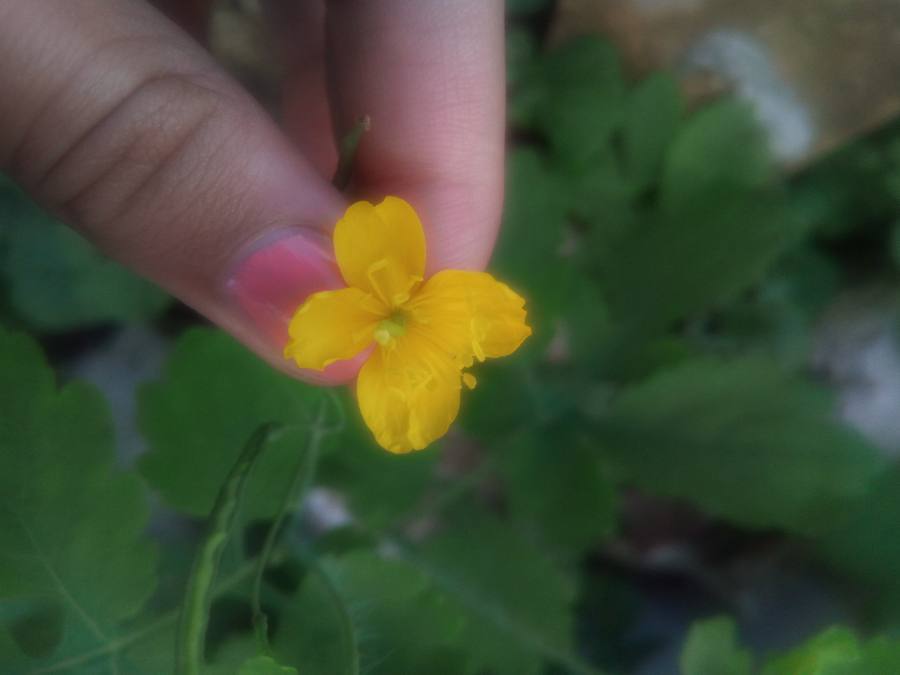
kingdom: Plantae
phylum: Tracheophyta
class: Magnoliopsida
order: Ranunculales
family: Papaveraceae
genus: Chelidonium
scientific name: Chelidonium majus
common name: Greater celandine
